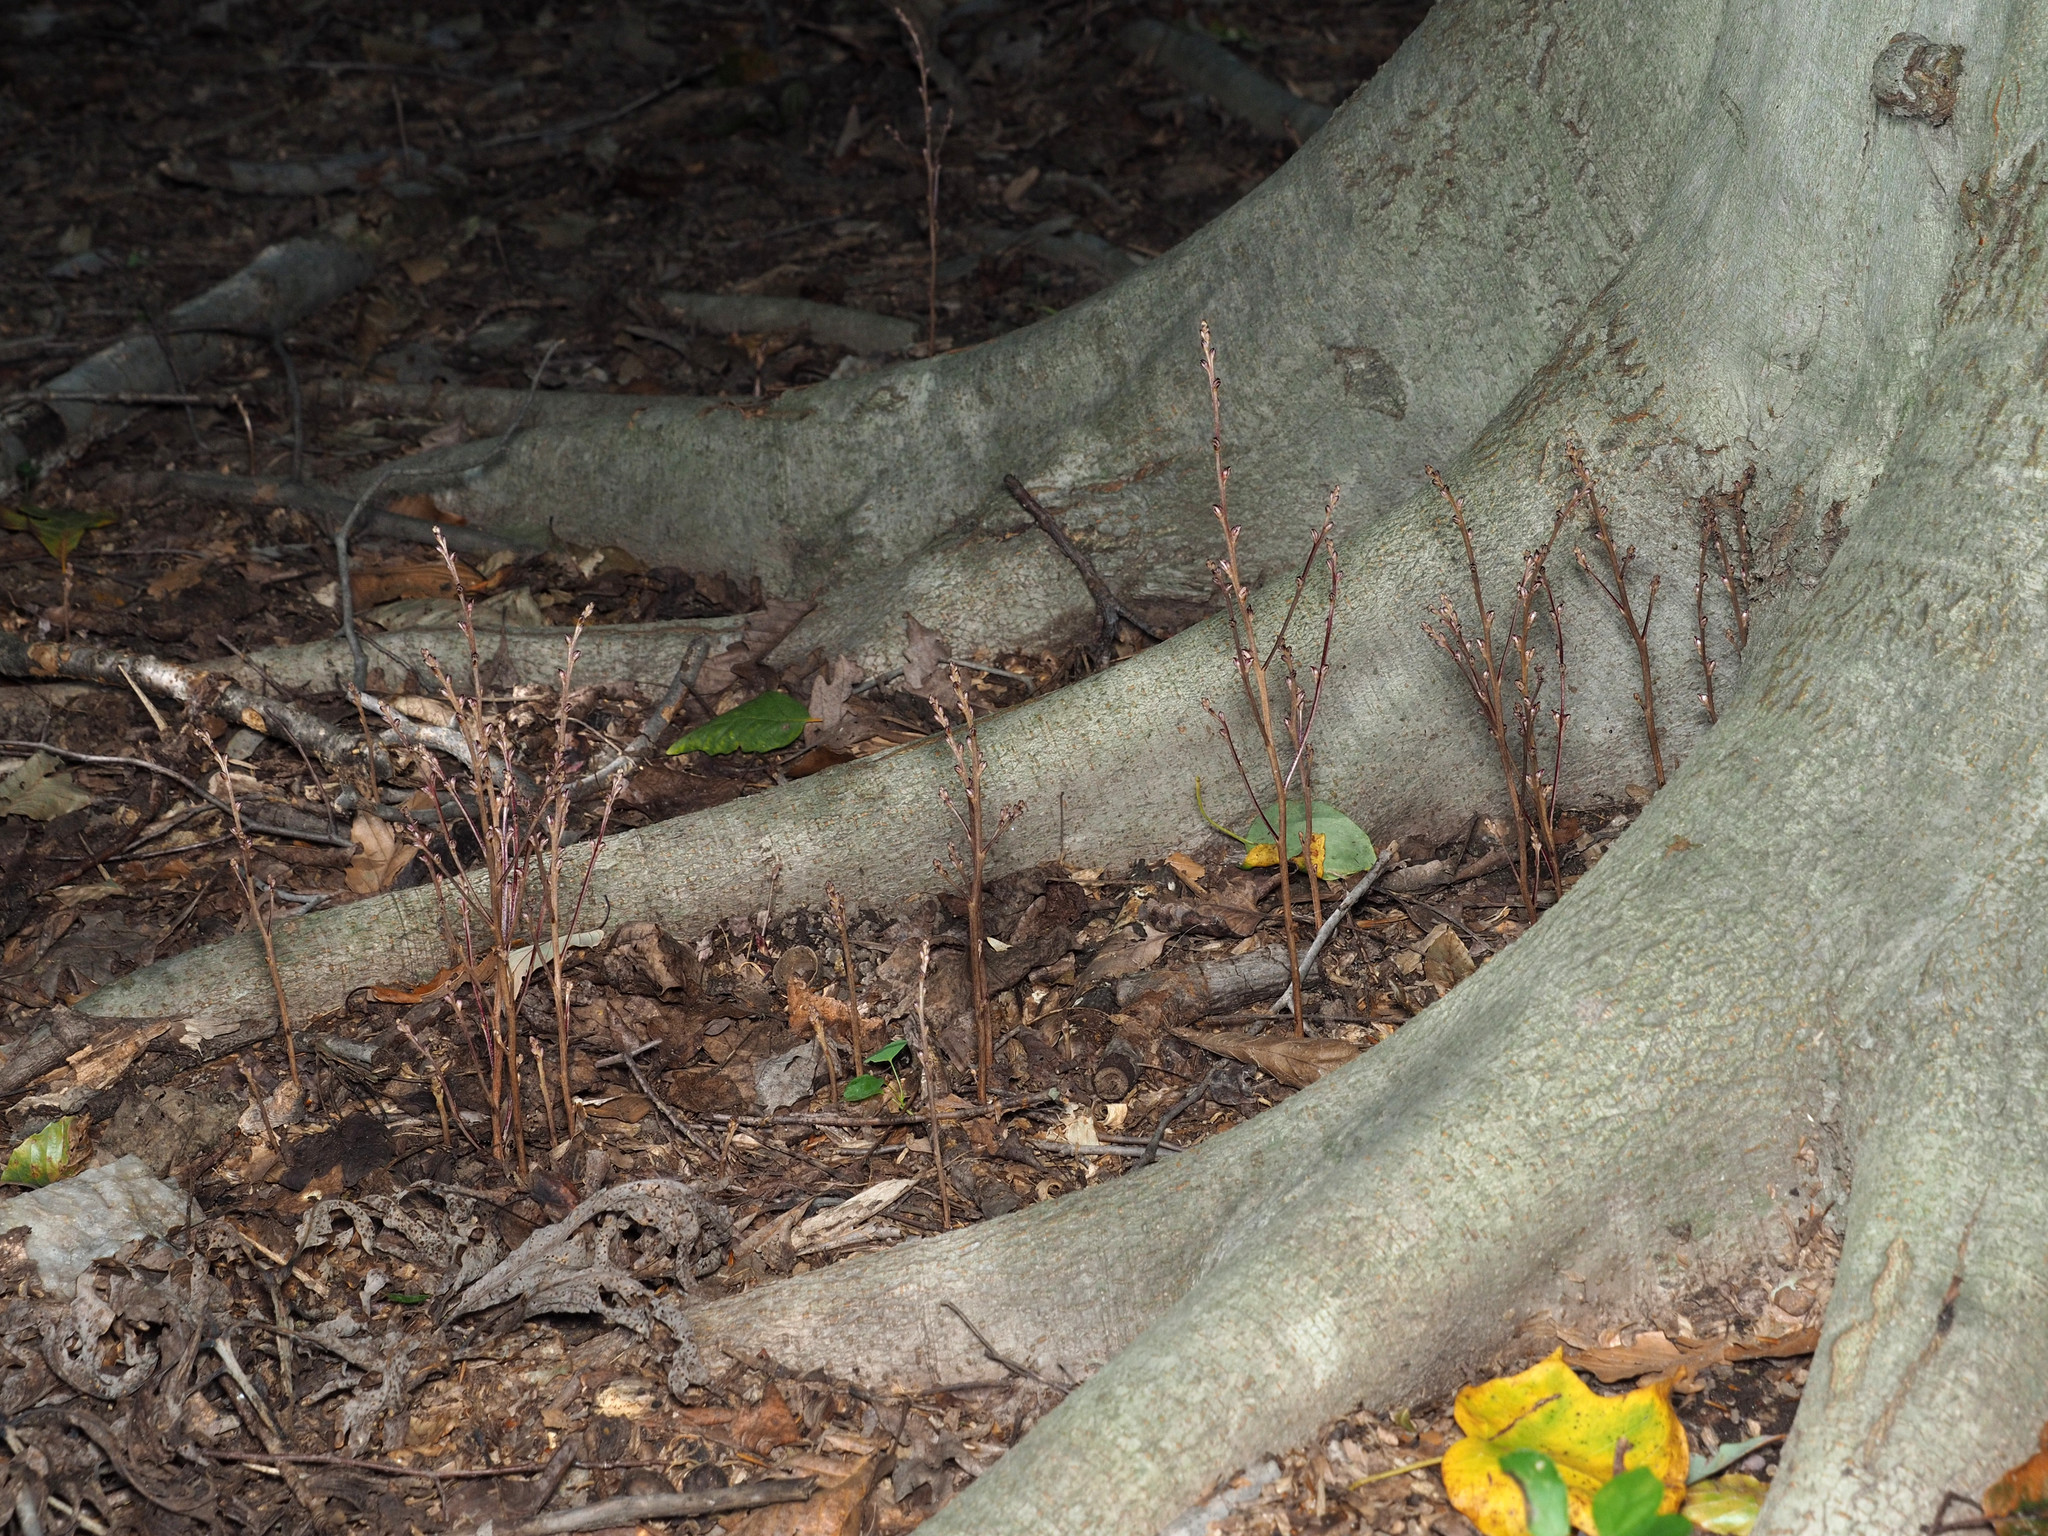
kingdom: Plantae
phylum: Tracheophyta
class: Magnoliopsida
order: Lamiales
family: Orobanchaceae
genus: Epifagus
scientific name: Epifagus virginiana
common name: Beechdrops
